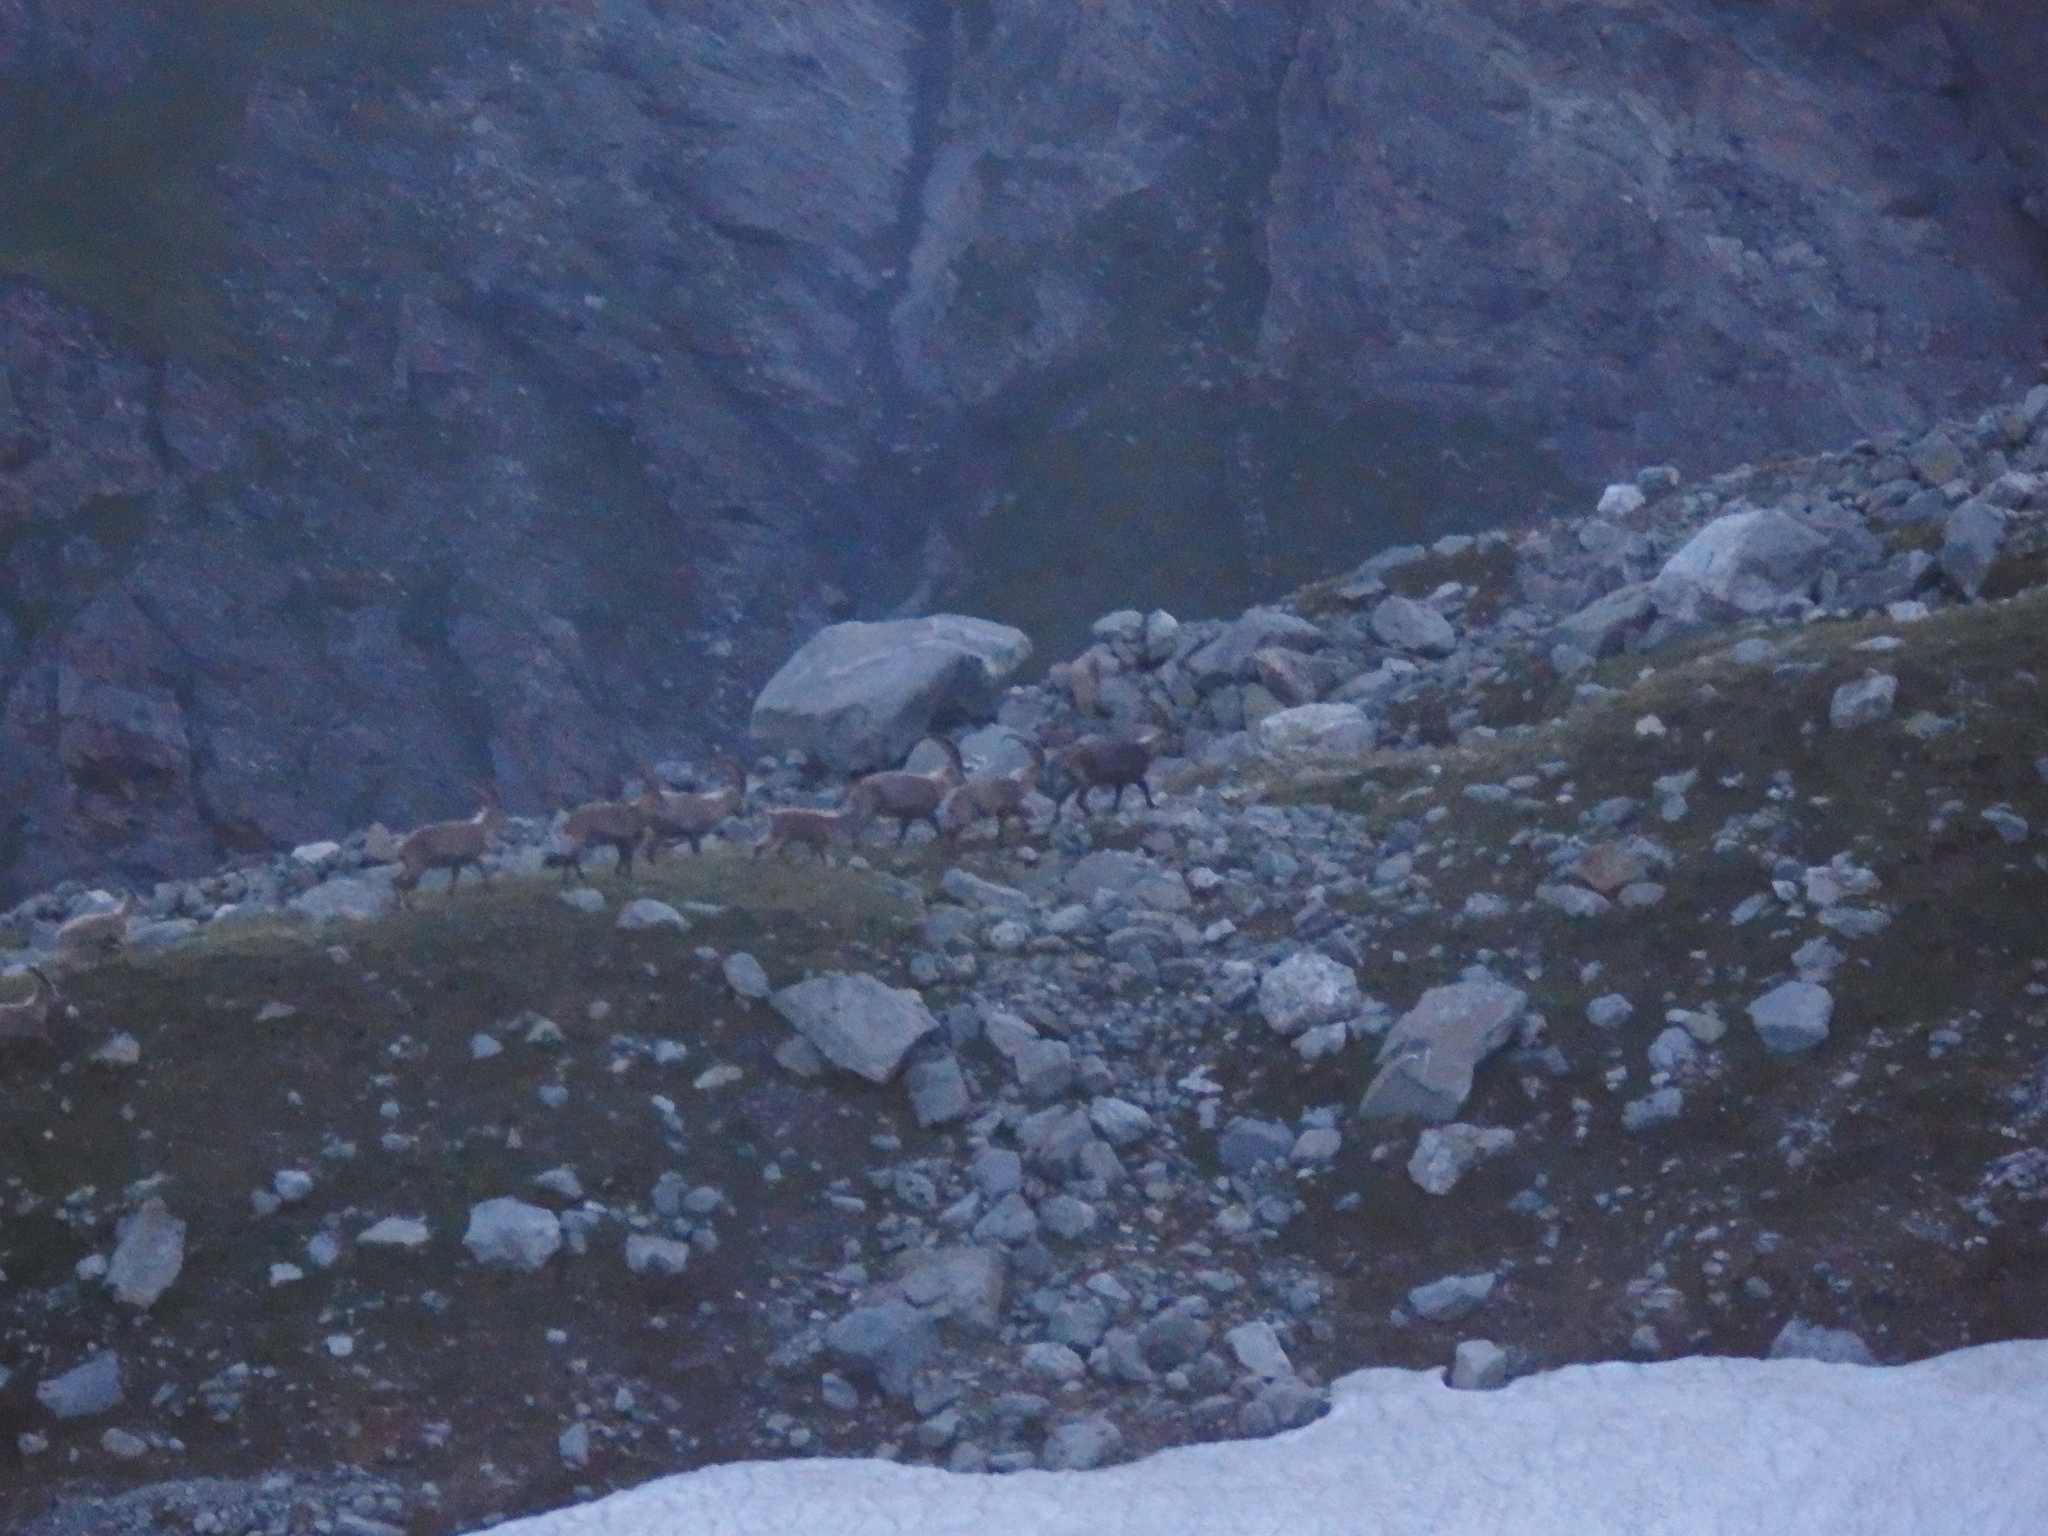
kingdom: Animalia
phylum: Chordata
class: Mammalia
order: Artiodactyla
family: Bovidae
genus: Capra
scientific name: Capra ibex
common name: Alpine ibex
